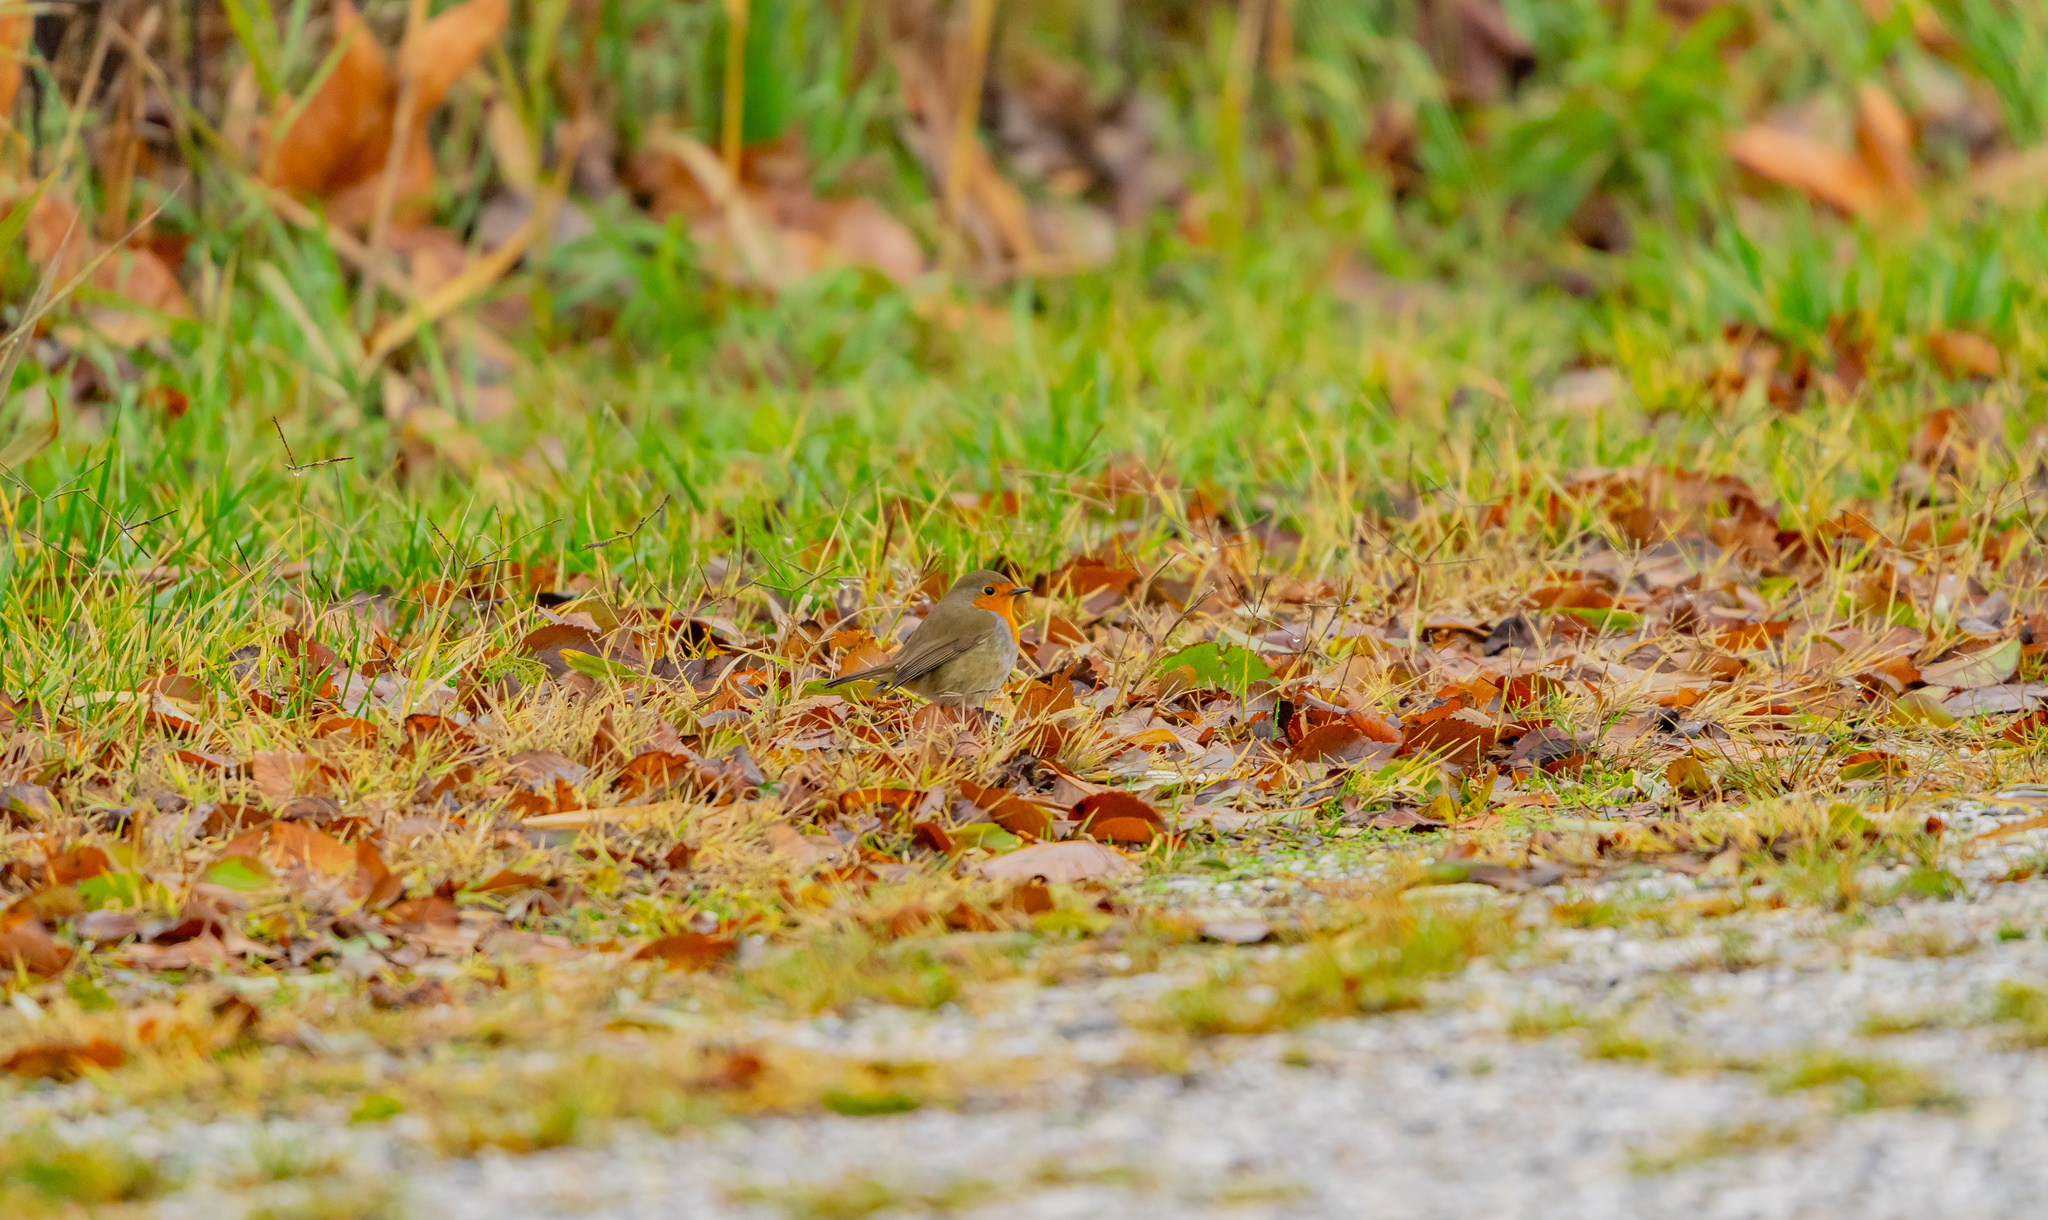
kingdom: Animalia
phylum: Chordata
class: Aves
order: Passeriformes
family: Muscicapidae
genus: Erithacus
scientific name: Erithacus rubecula
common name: European robin
